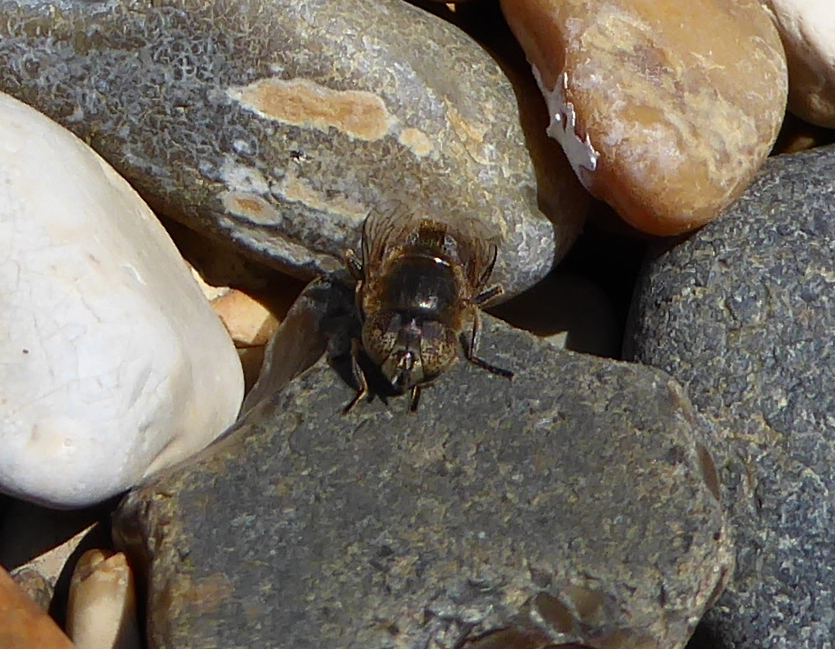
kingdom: Animalia
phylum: Arthropoda
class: Insecta
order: Diptera
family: Syrphidae
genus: Eristalinus
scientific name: Eristalinus
